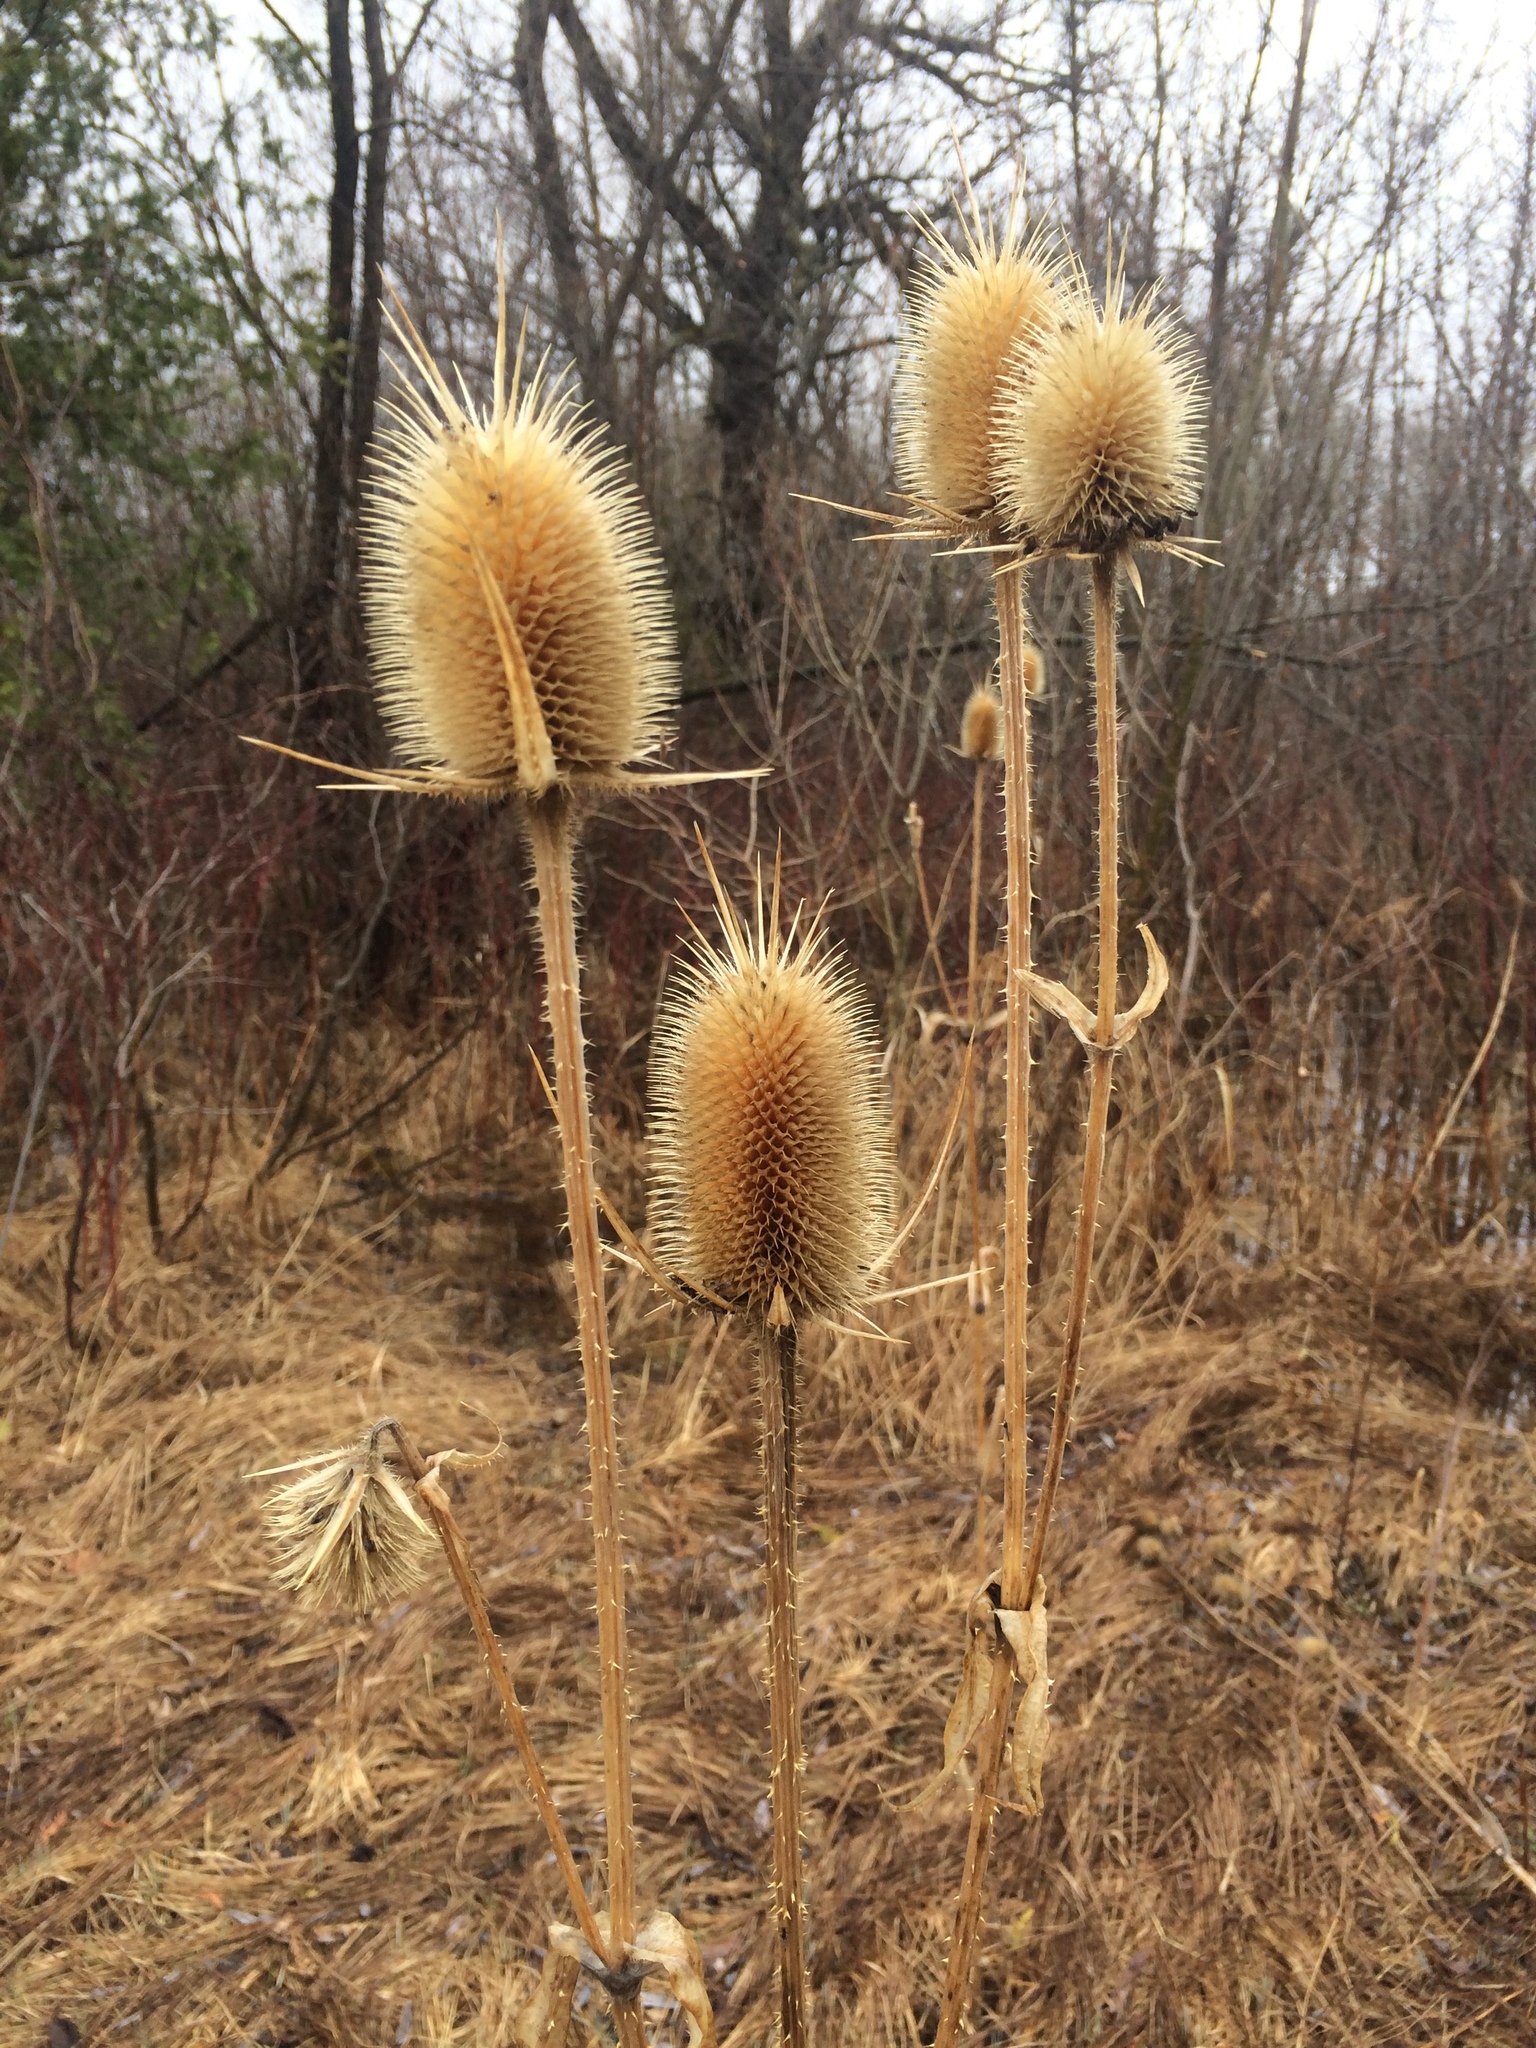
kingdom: Plantae
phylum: Tracheophyta
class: Magnoliopsida
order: Dipsacales
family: Caprifoliaceae
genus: Dipsacus
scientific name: Dipsacus laciniatus
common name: Cut-leaved teasel
